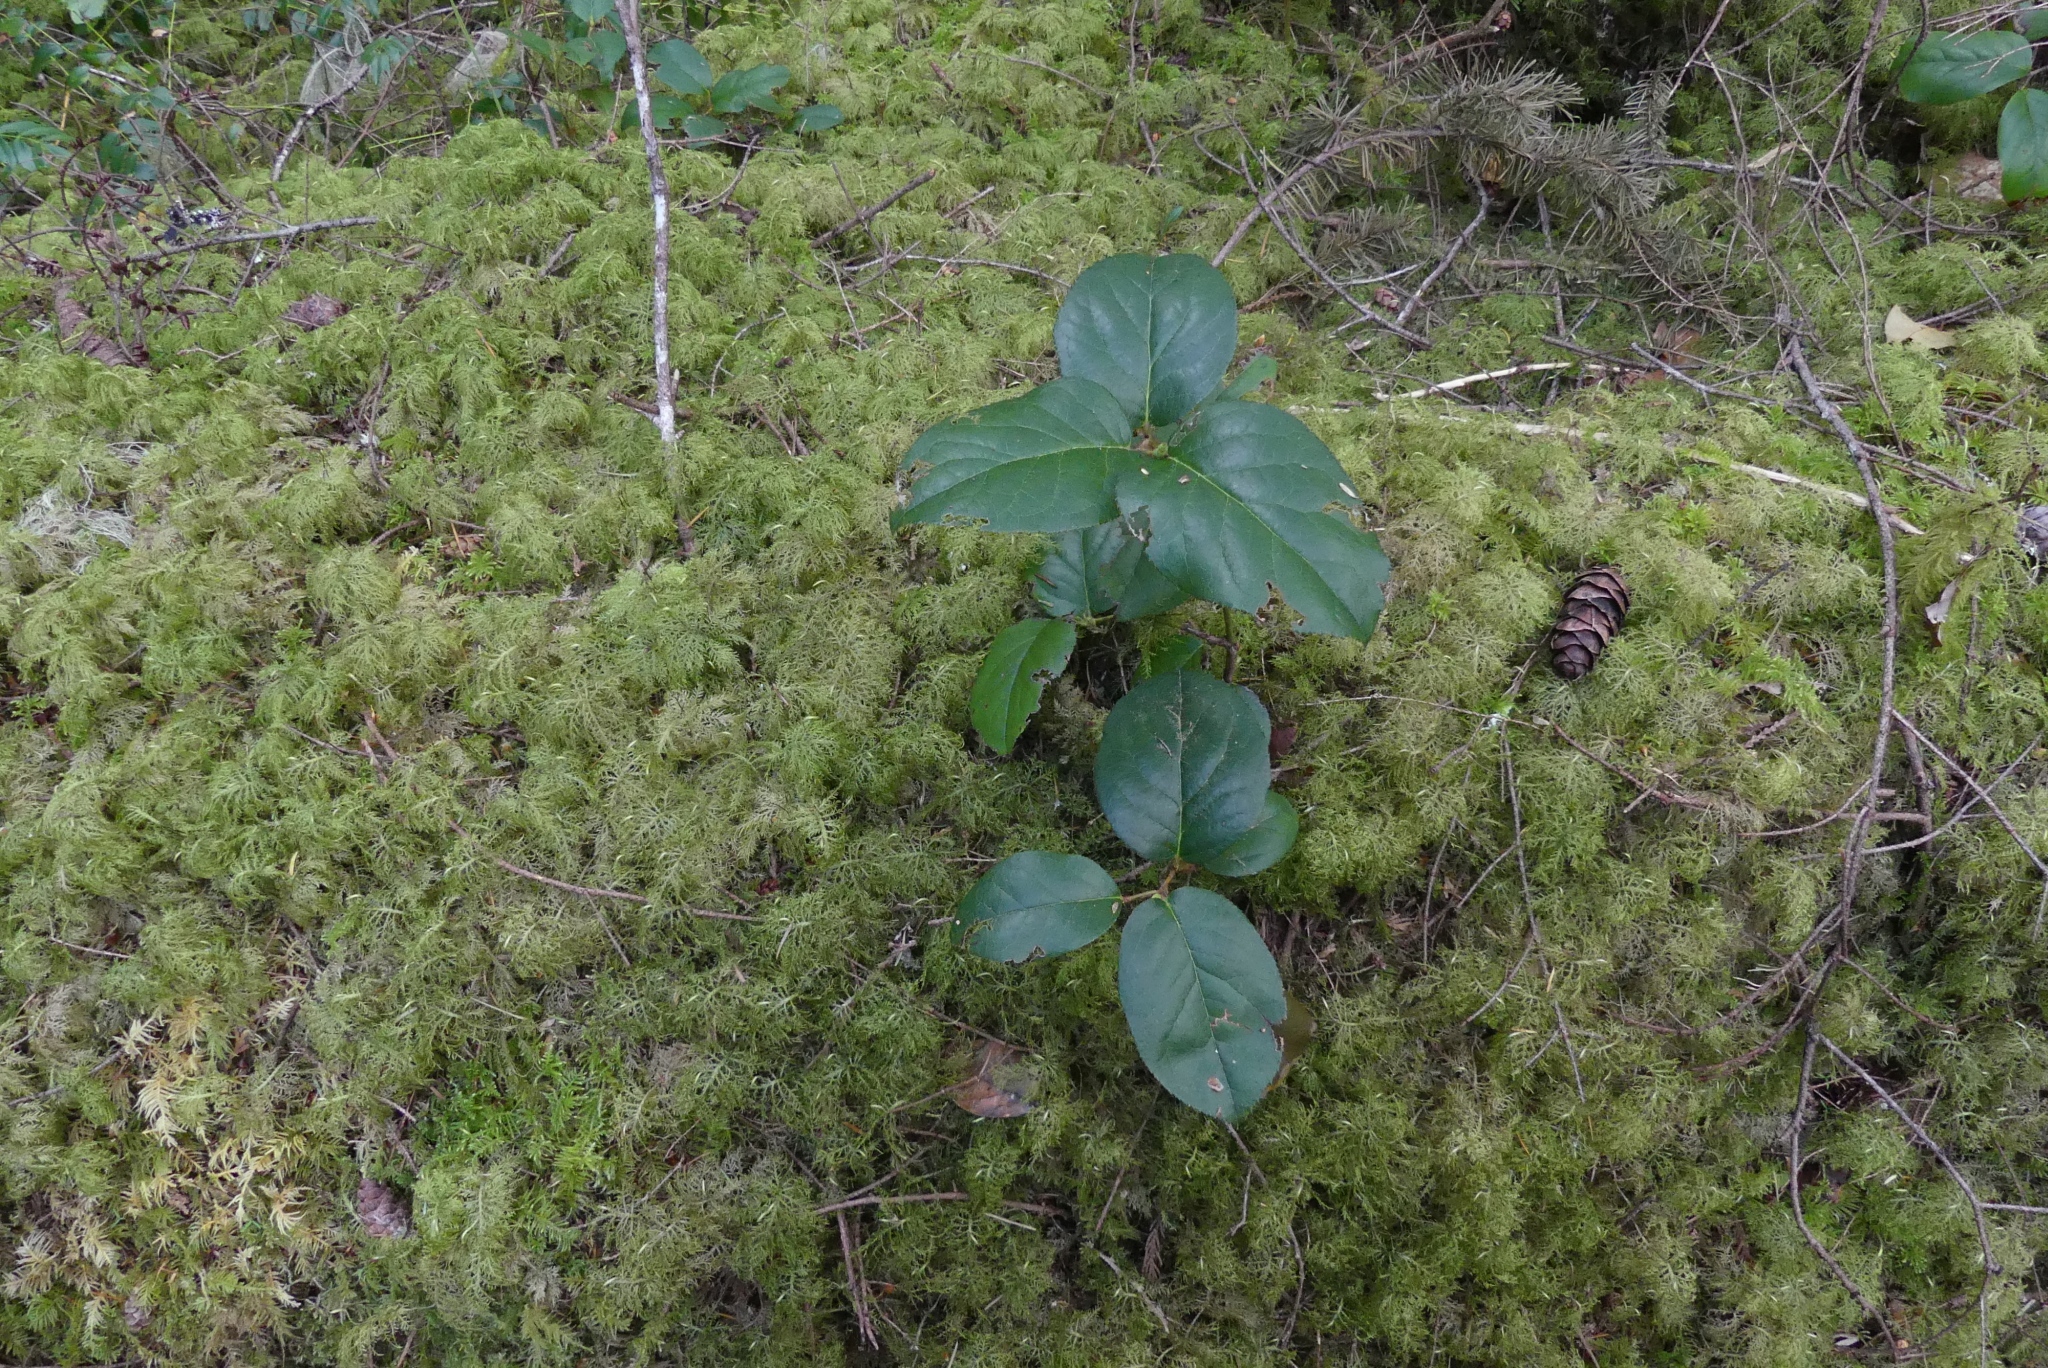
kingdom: Plantae
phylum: Tracheophyta
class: Magnoliopsida
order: Ericales
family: Ericaceae
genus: Gaultheria
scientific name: Gaultheria shallon
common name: Shallon
